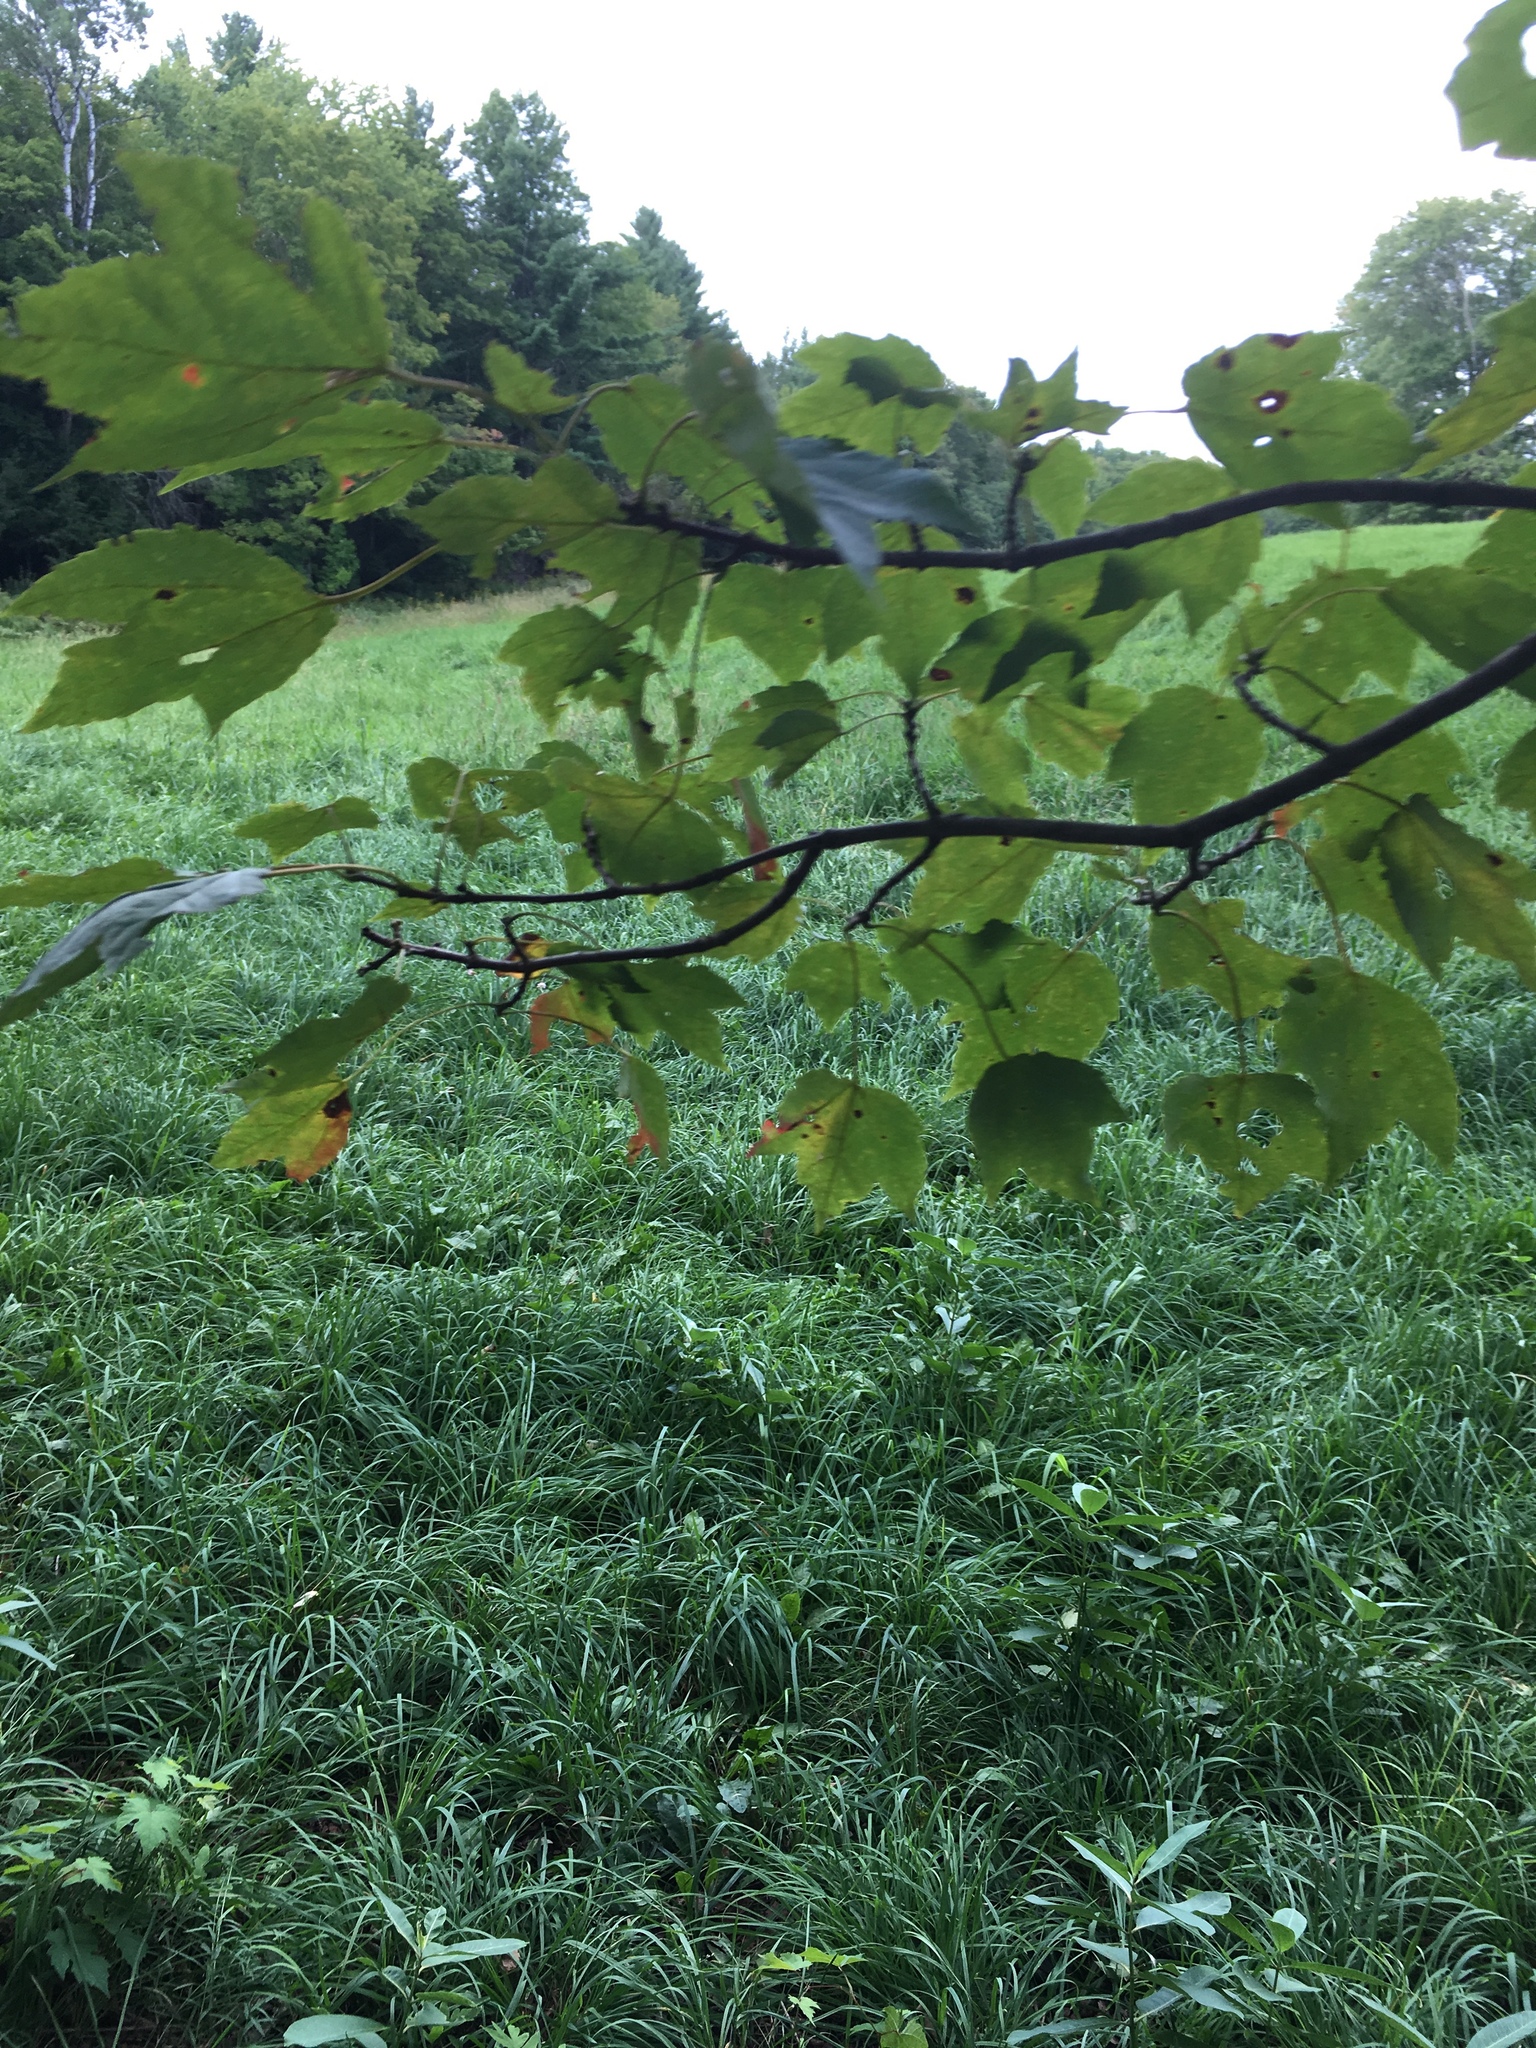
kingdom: Plantae
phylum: Tracheophyta
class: Magnoliopsida
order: Sapindales
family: Sapindaceae
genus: Acer
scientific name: Acer rubrum
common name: Red maple
